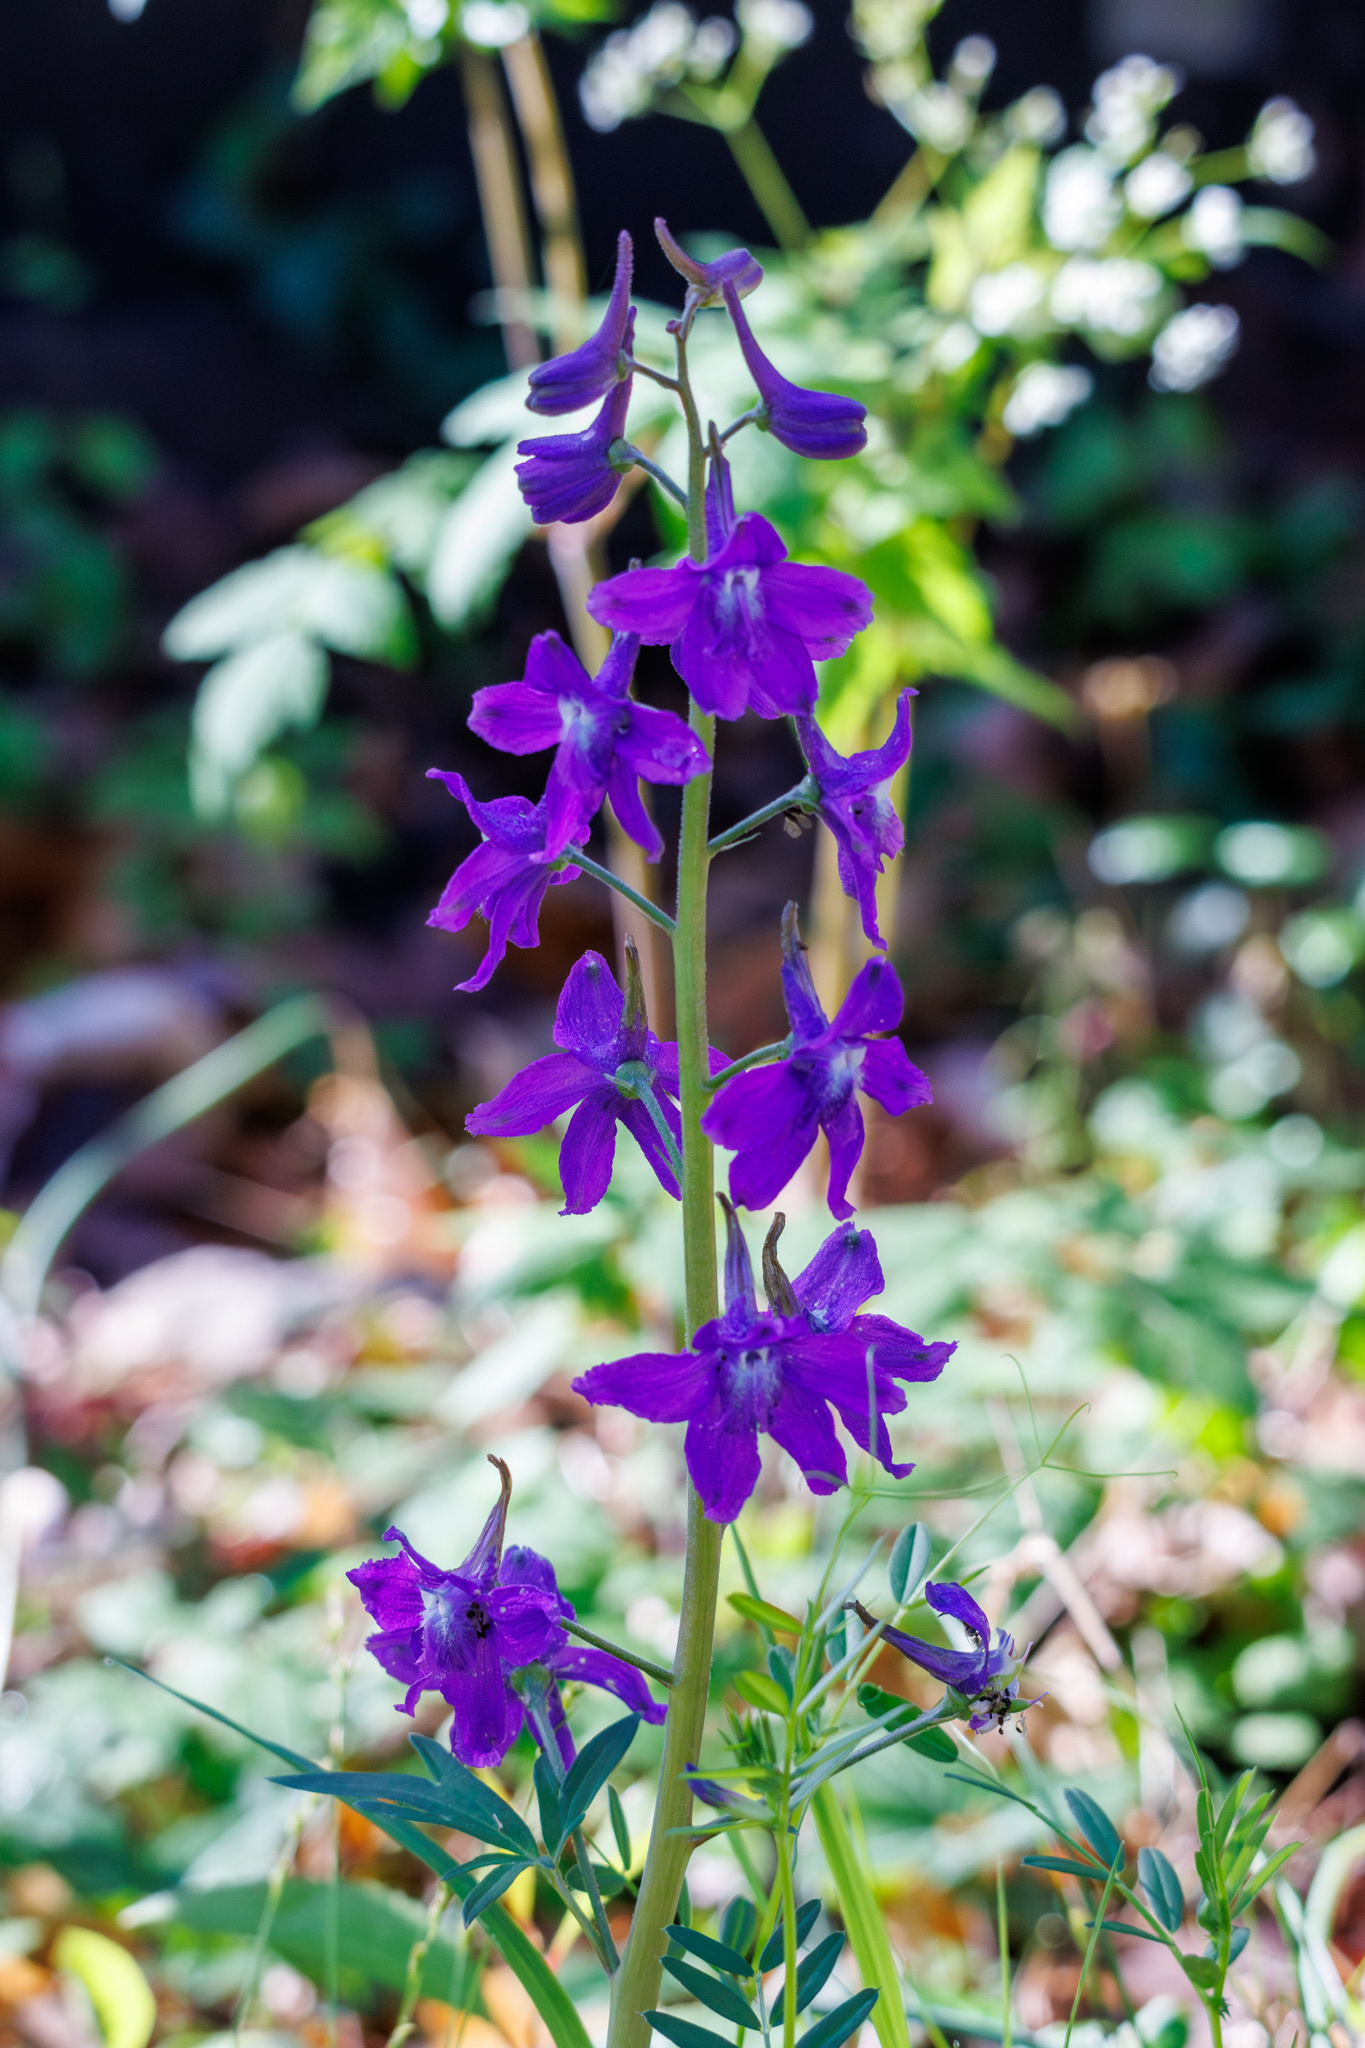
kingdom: Plantae
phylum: Tracheophyta
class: Magnoliopsida
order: Ranunculales
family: Ranunculaceae
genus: Delphinium
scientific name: Delphinium tricorne
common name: Dwarf larkspur
